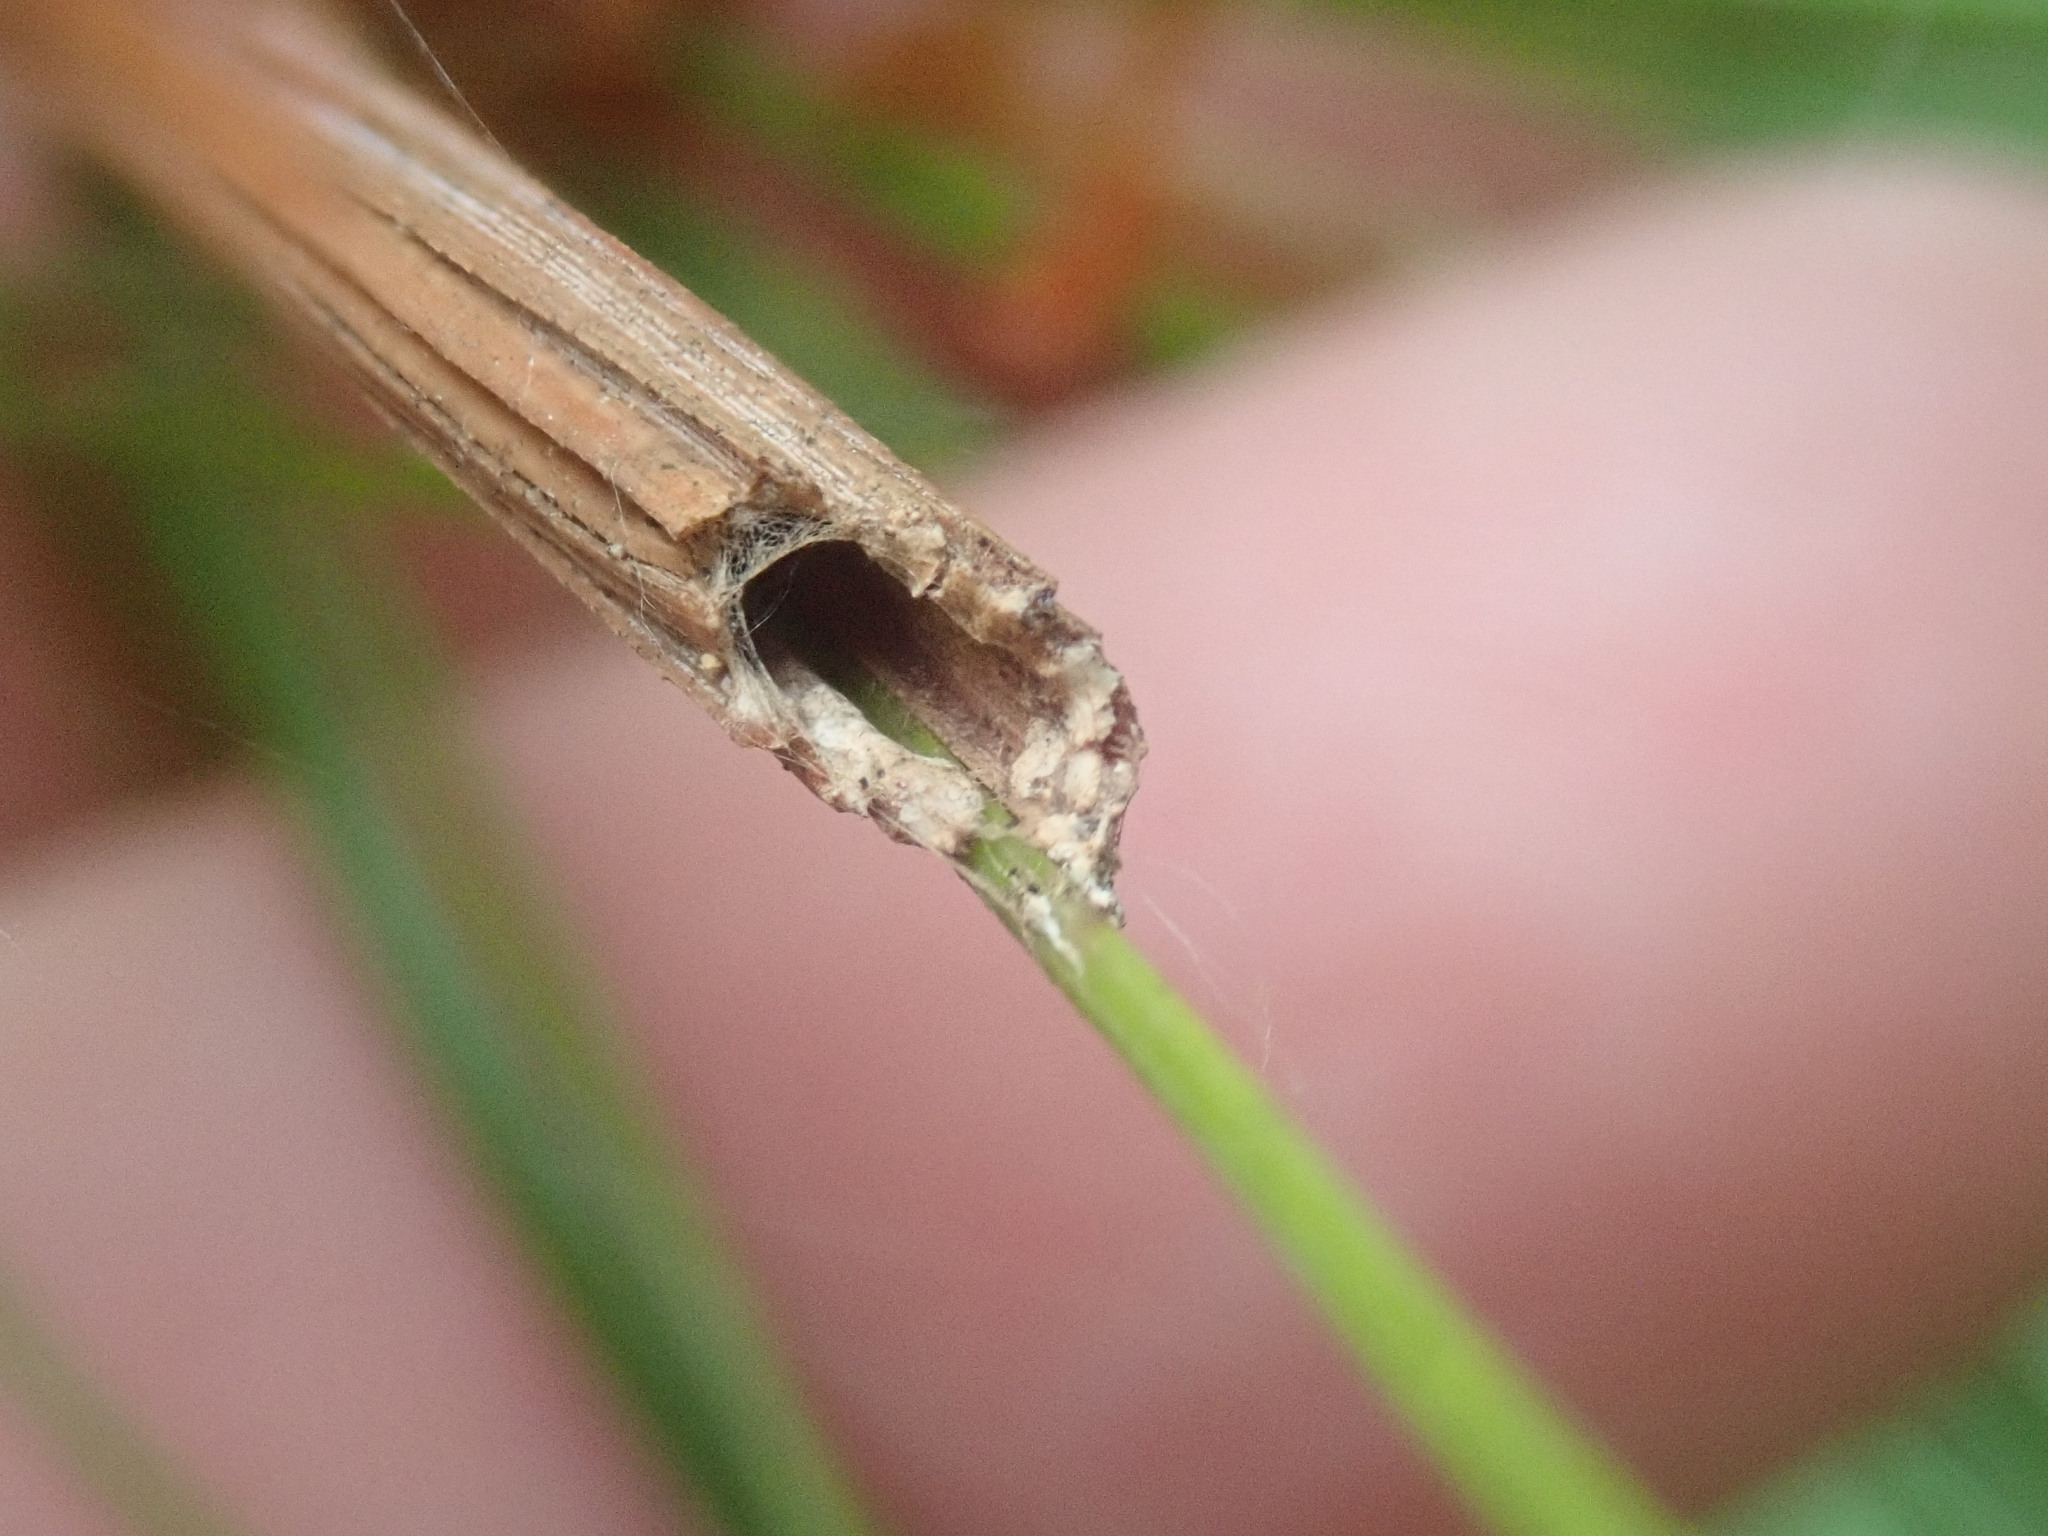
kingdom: Animalia
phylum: Arthropoda
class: Insecta
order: Lepidoptera
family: Tortricidae
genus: Argyrotaenia
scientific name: Argyrotaenia pinatubana
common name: Pine tube moth
